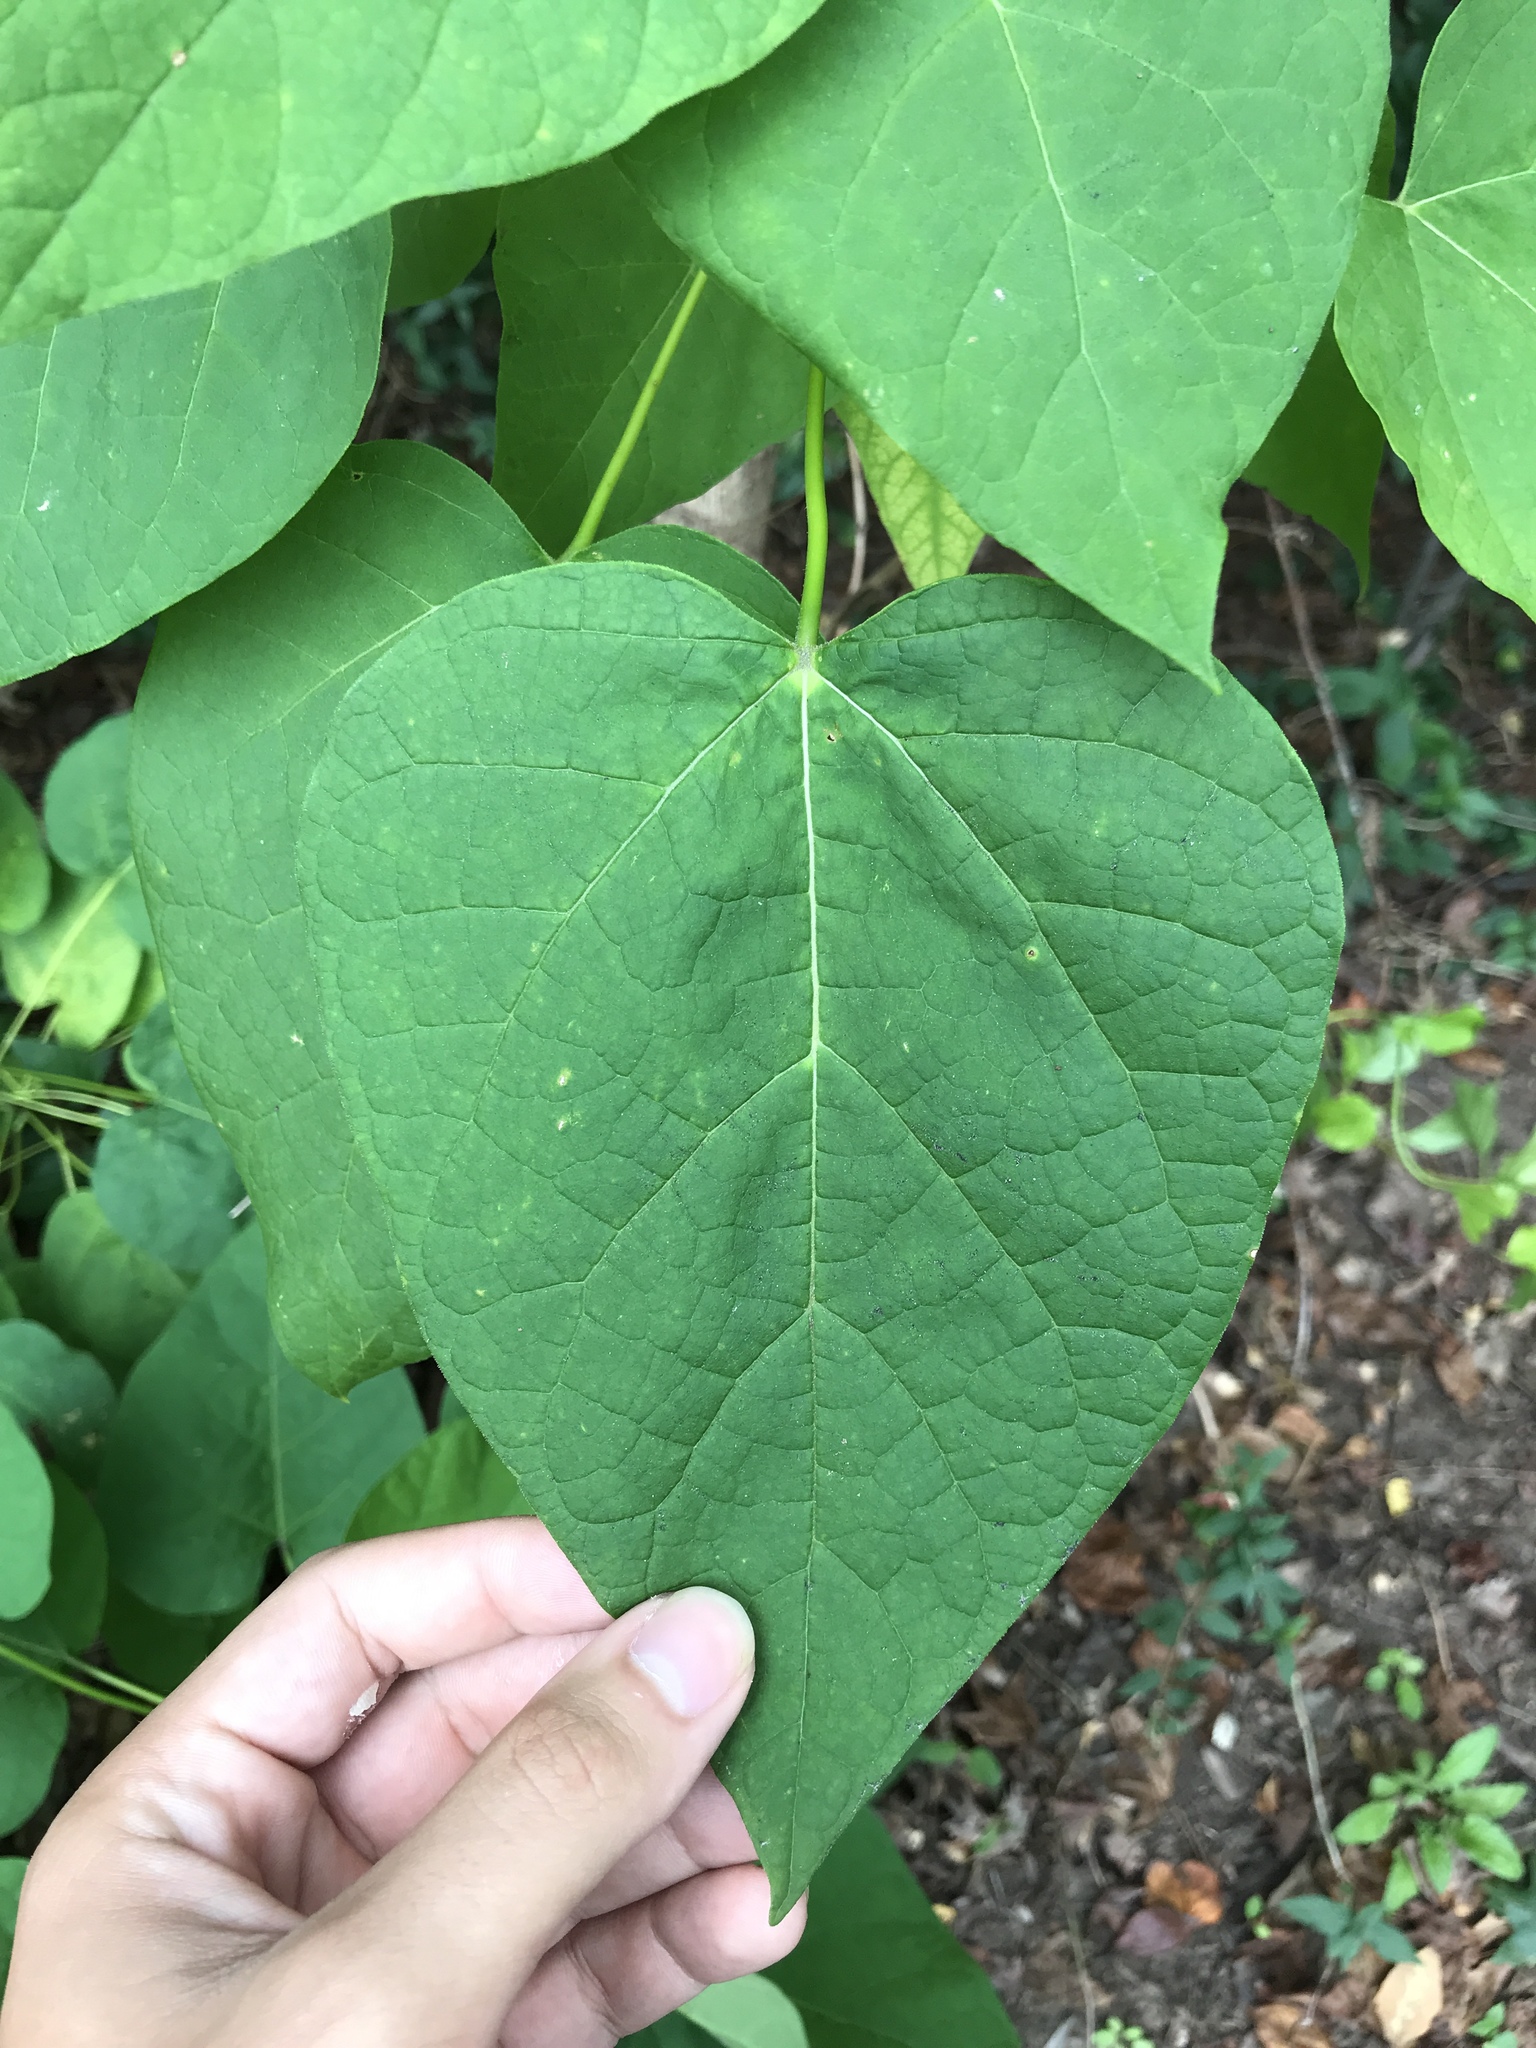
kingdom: Plantae
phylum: Tracheophyta
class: Magnoliopsida
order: Lamiales
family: Bignoniaceae
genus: Catalpa
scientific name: Catalpa speciosa
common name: Northern catalpa
